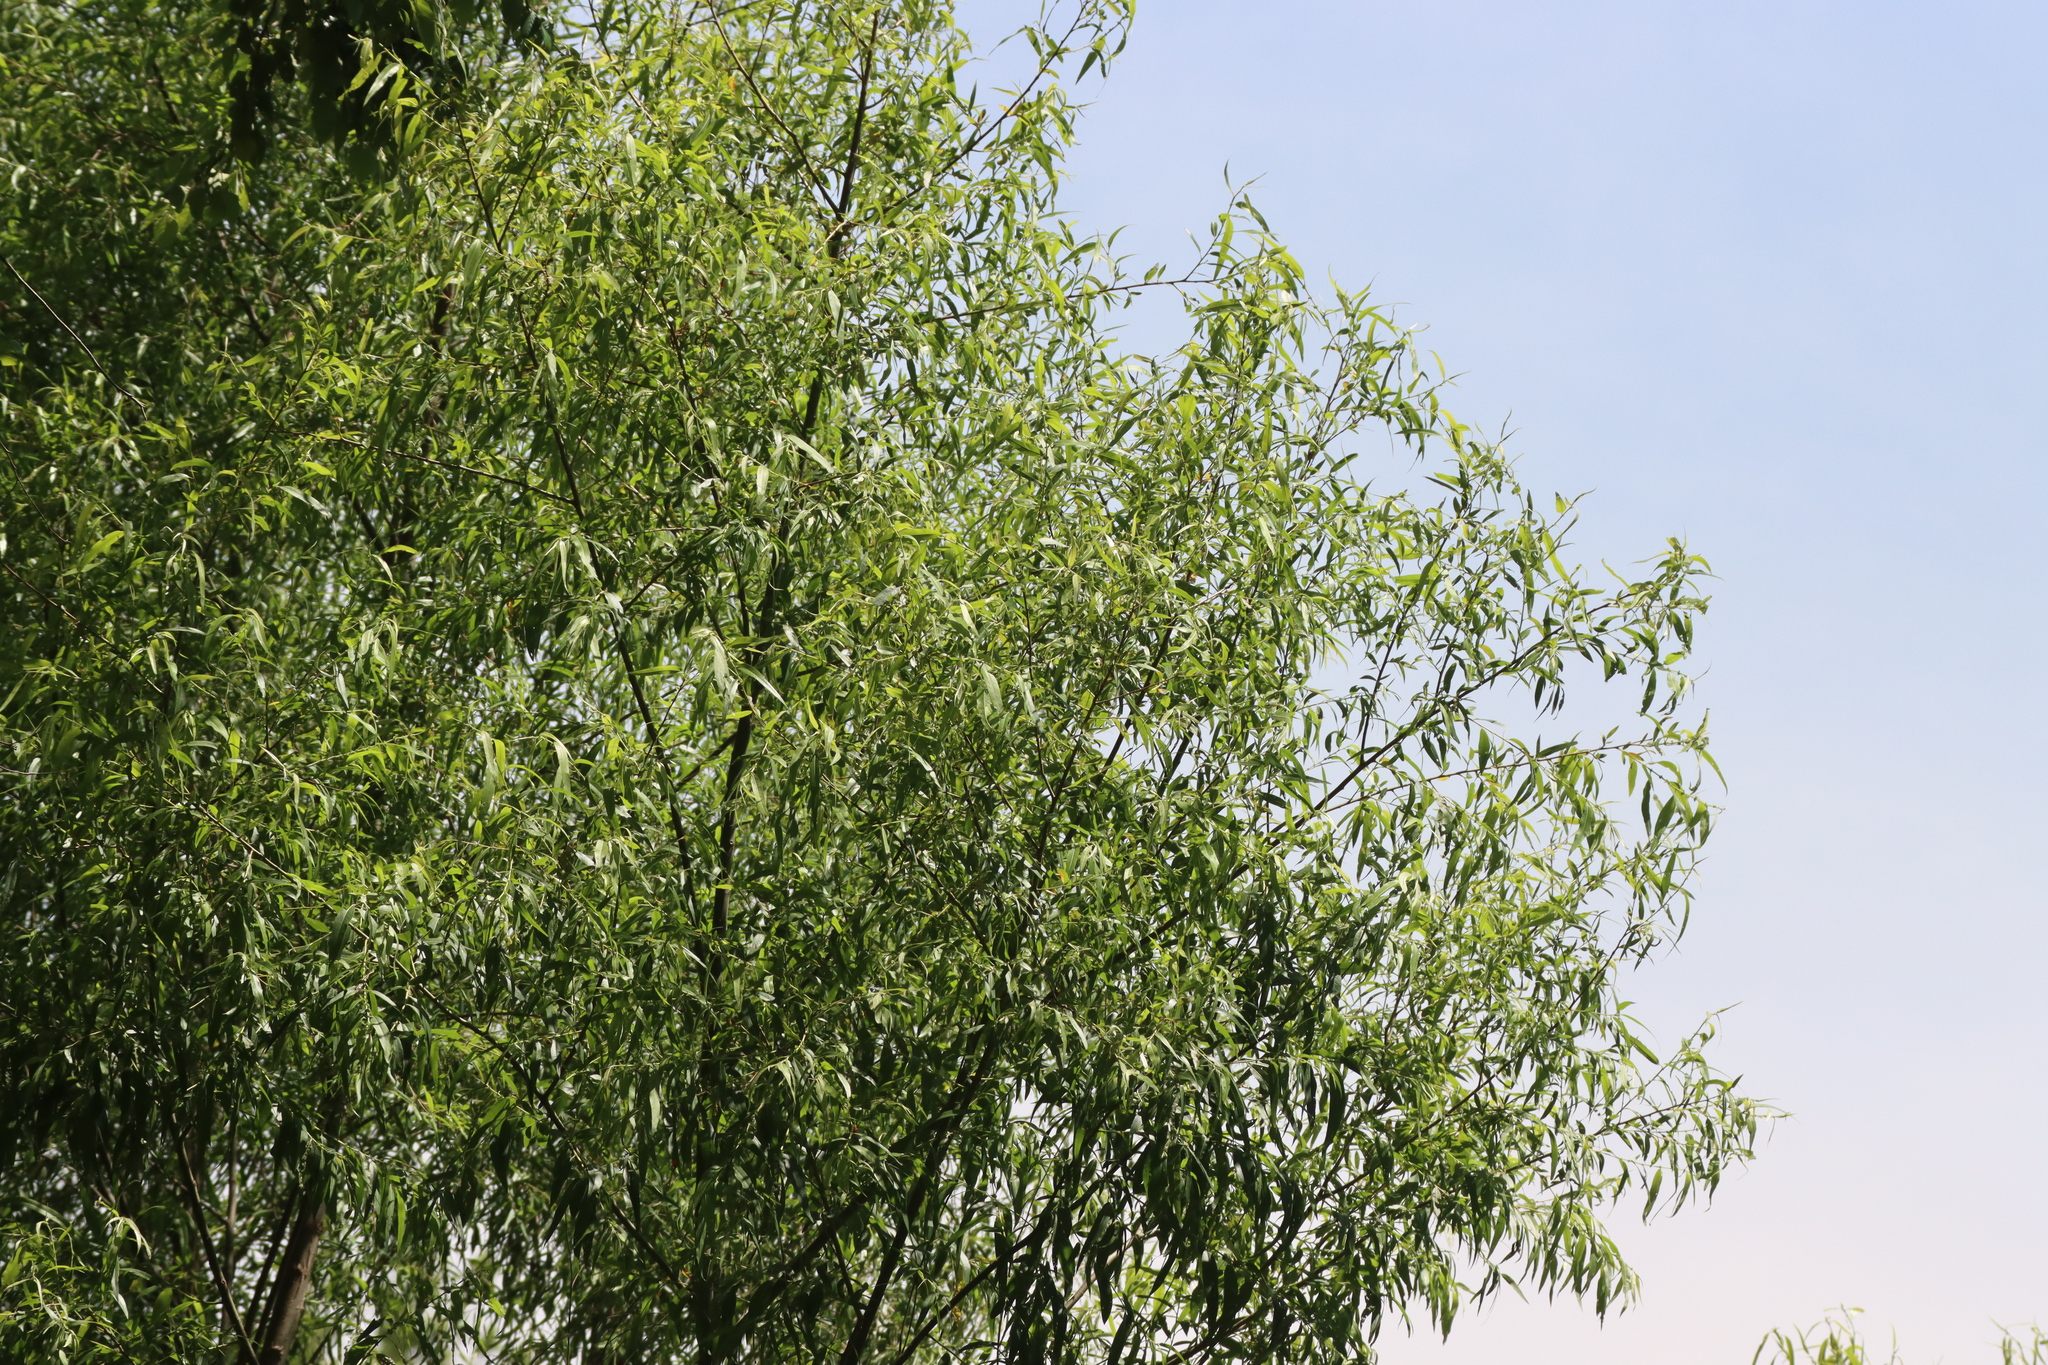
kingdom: Plantae
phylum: Tracheophyta
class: Magnoliopsida
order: Malpighiales
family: Salicaceae
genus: Salix
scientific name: Salix nigra
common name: Black willow
